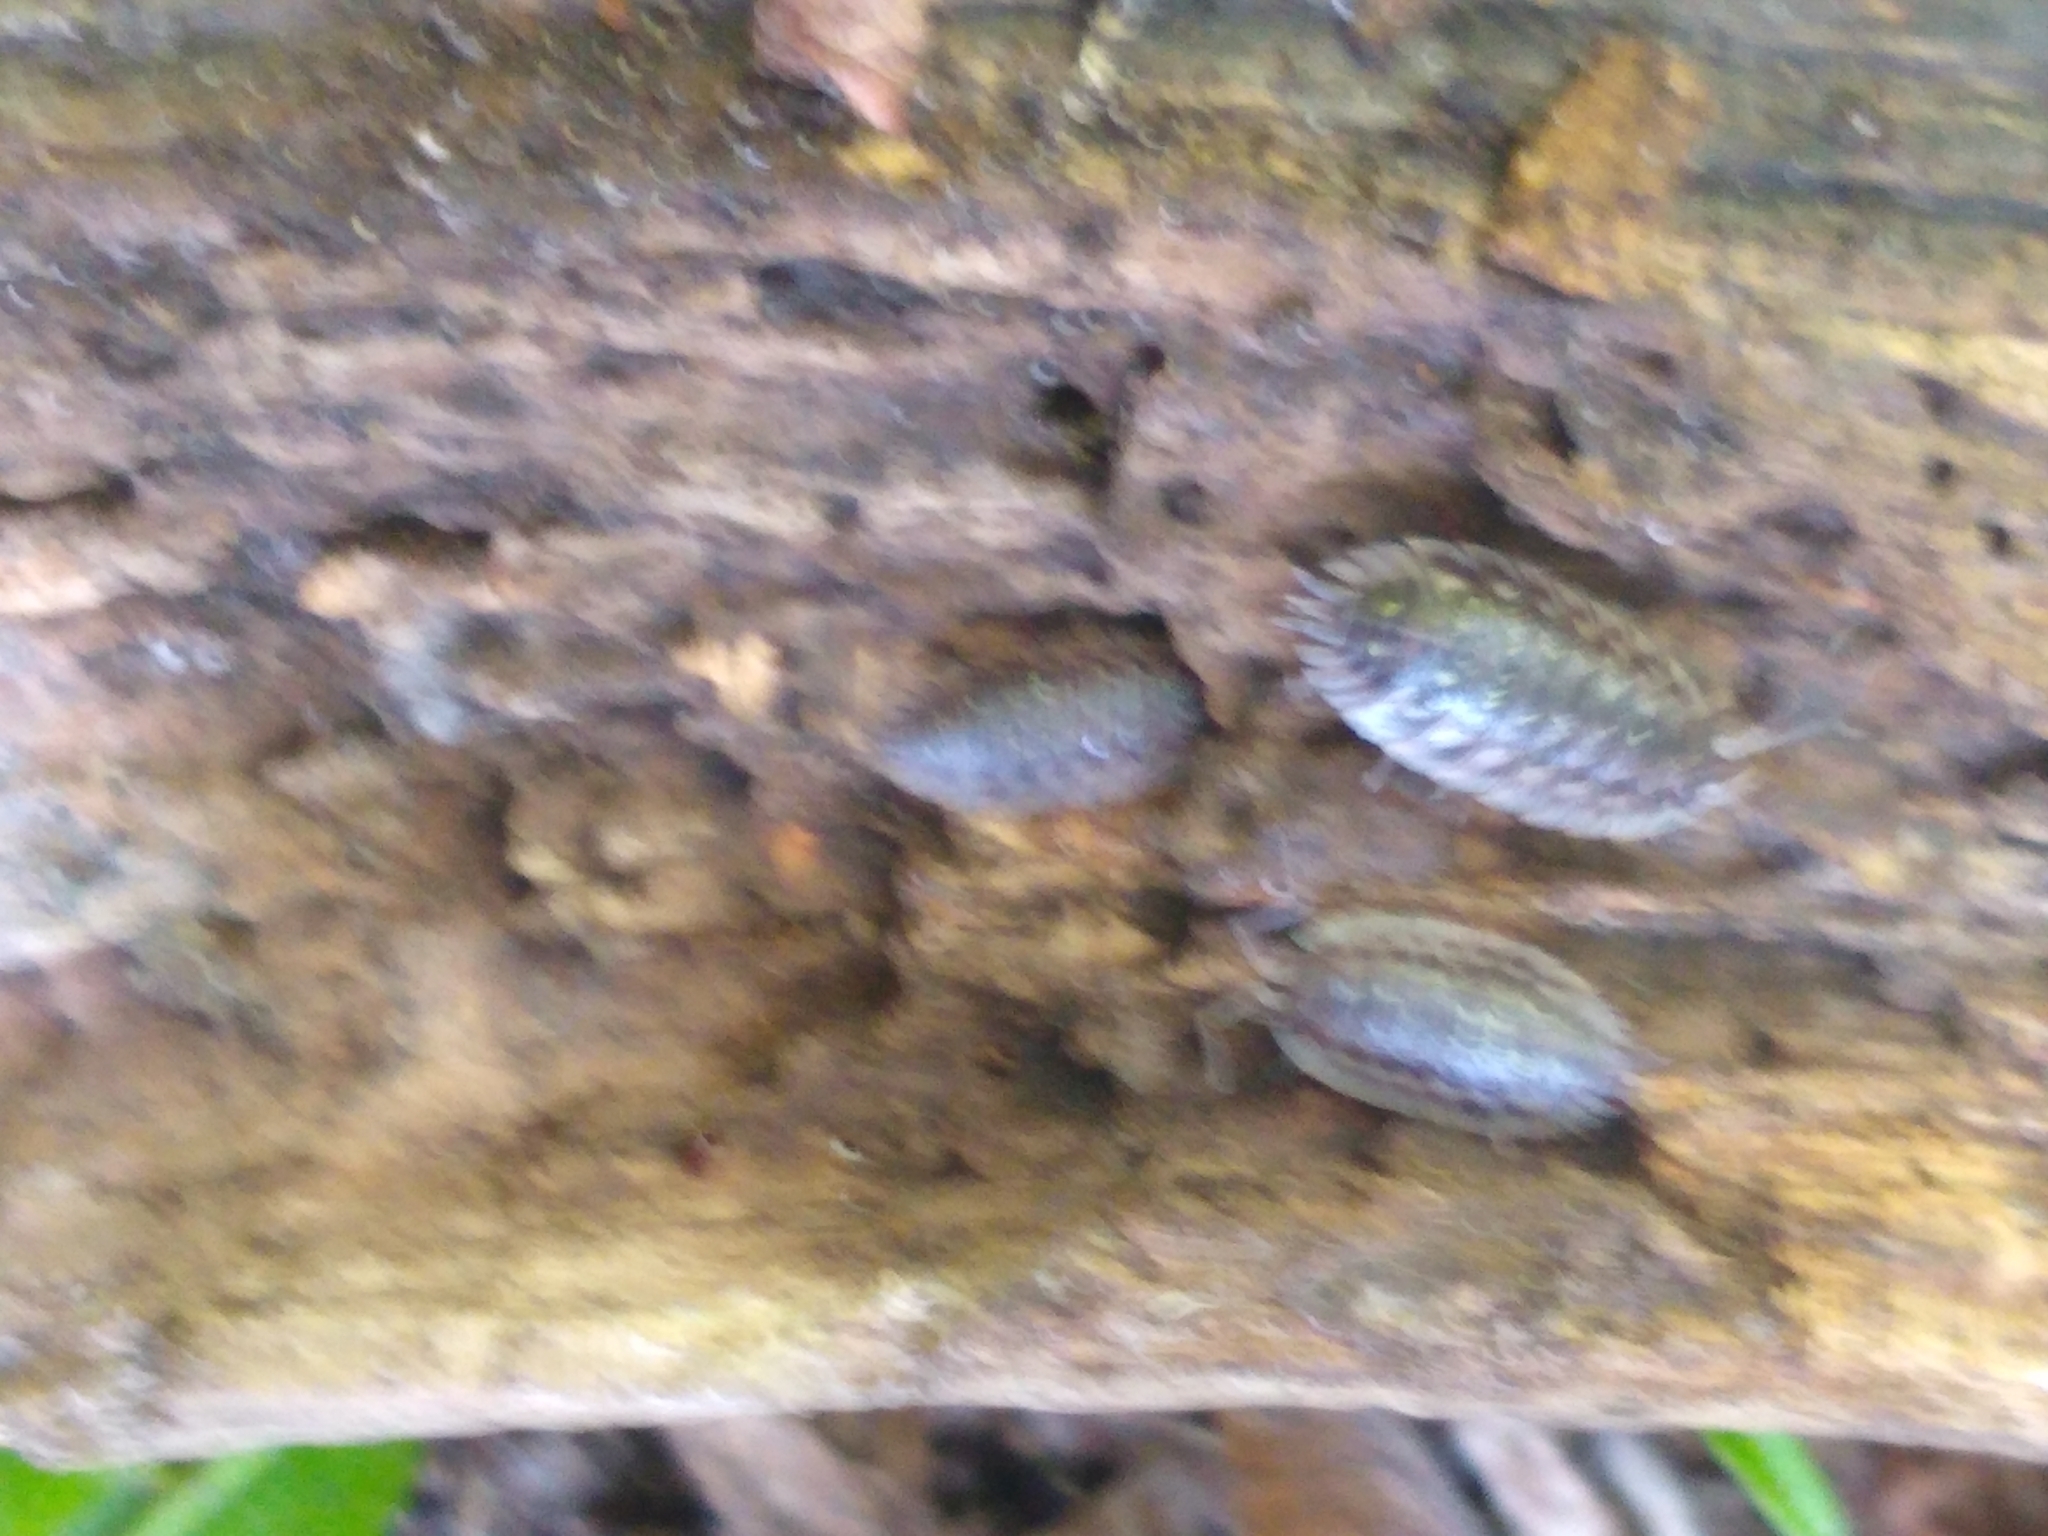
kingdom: Animalia
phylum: Arthropoda
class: Malacostraca
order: Isopoda
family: Oniscidae
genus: Oniscus
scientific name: Oniscus asellus
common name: Common shiny woodlouse
